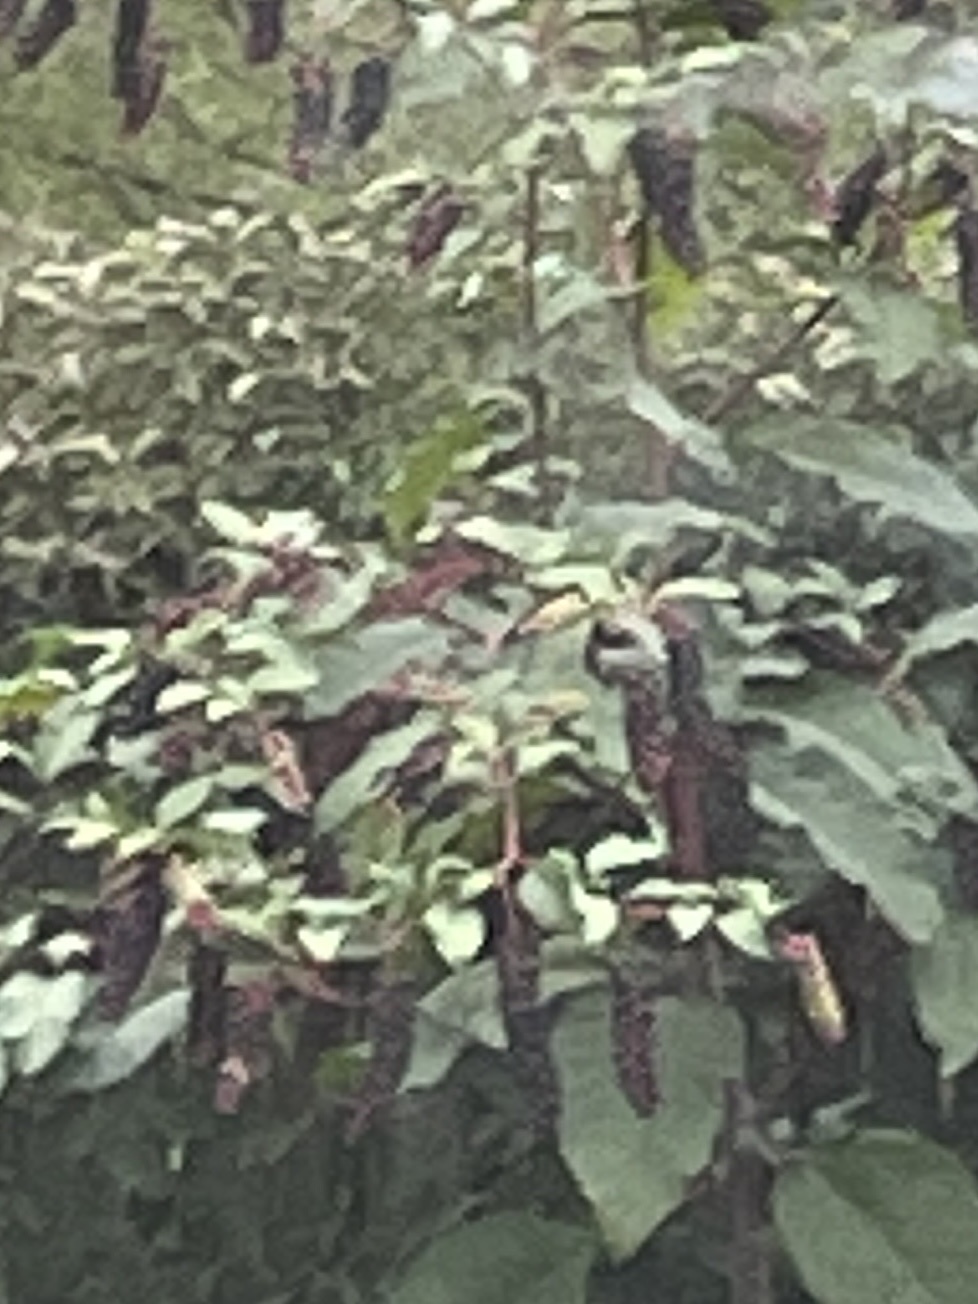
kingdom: Plantae
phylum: Tracheophyta
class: Magnoliopsida
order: Caryophyllales
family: Phytolaccaceae
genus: Phytolacca
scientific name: Phytolacca americana
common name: American pokeweed
